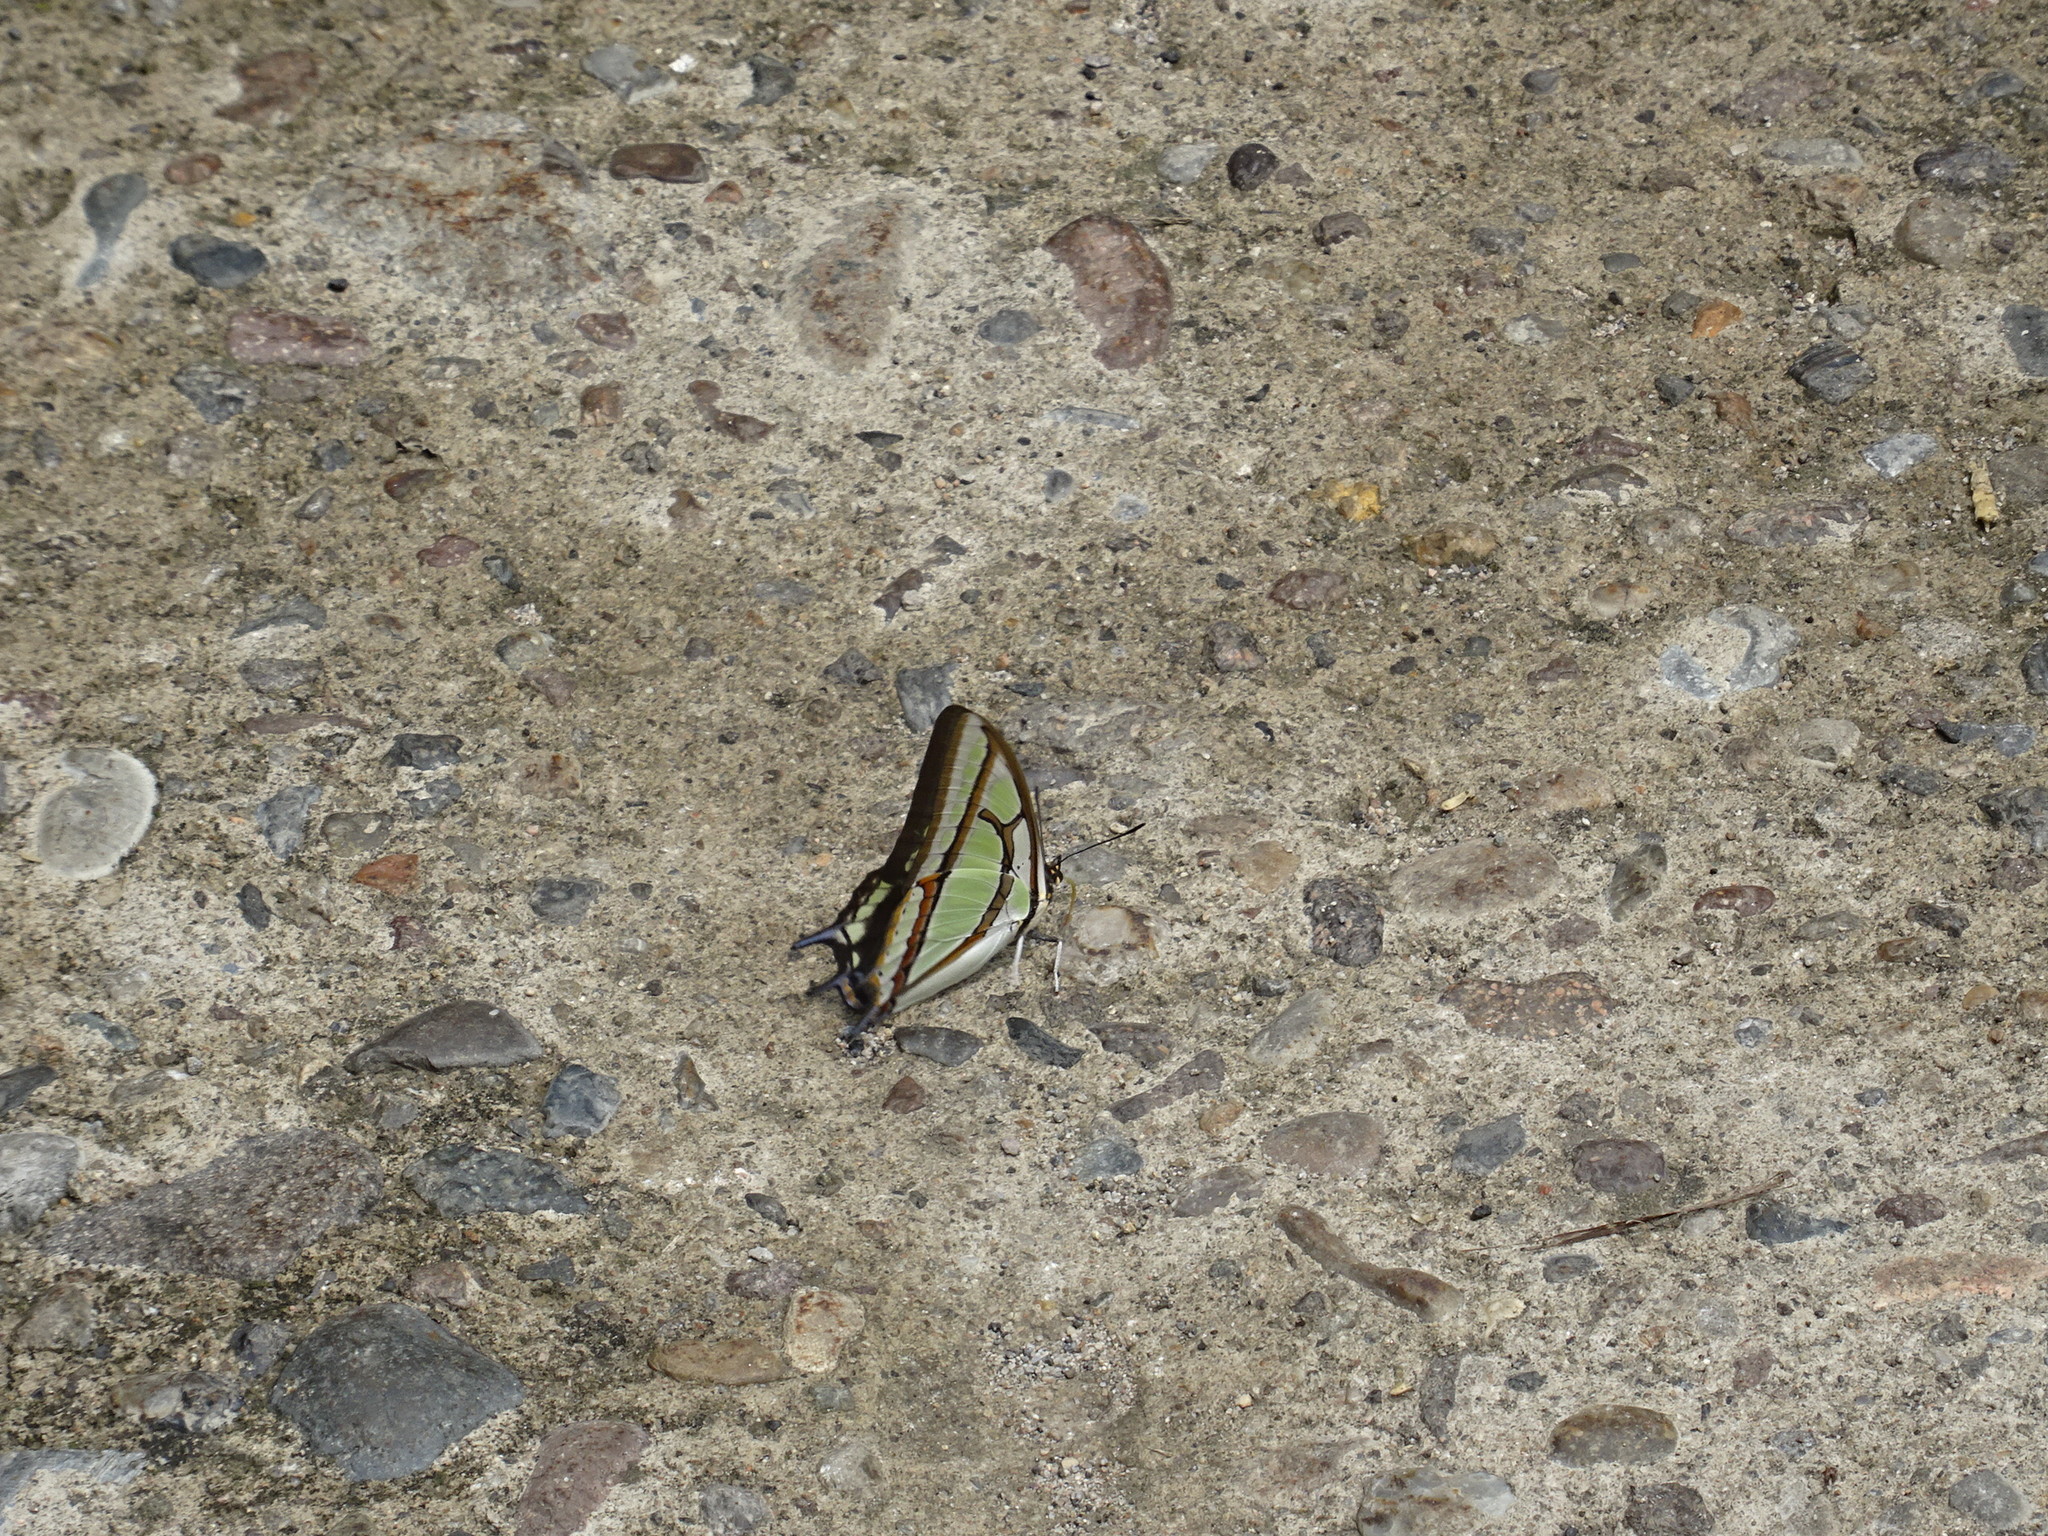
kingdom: Animalia
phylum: Arthropoda
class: Insecta
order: Lepidoptera
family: Nymphalidae
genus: Polyura
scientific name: Polyura narcaeus
